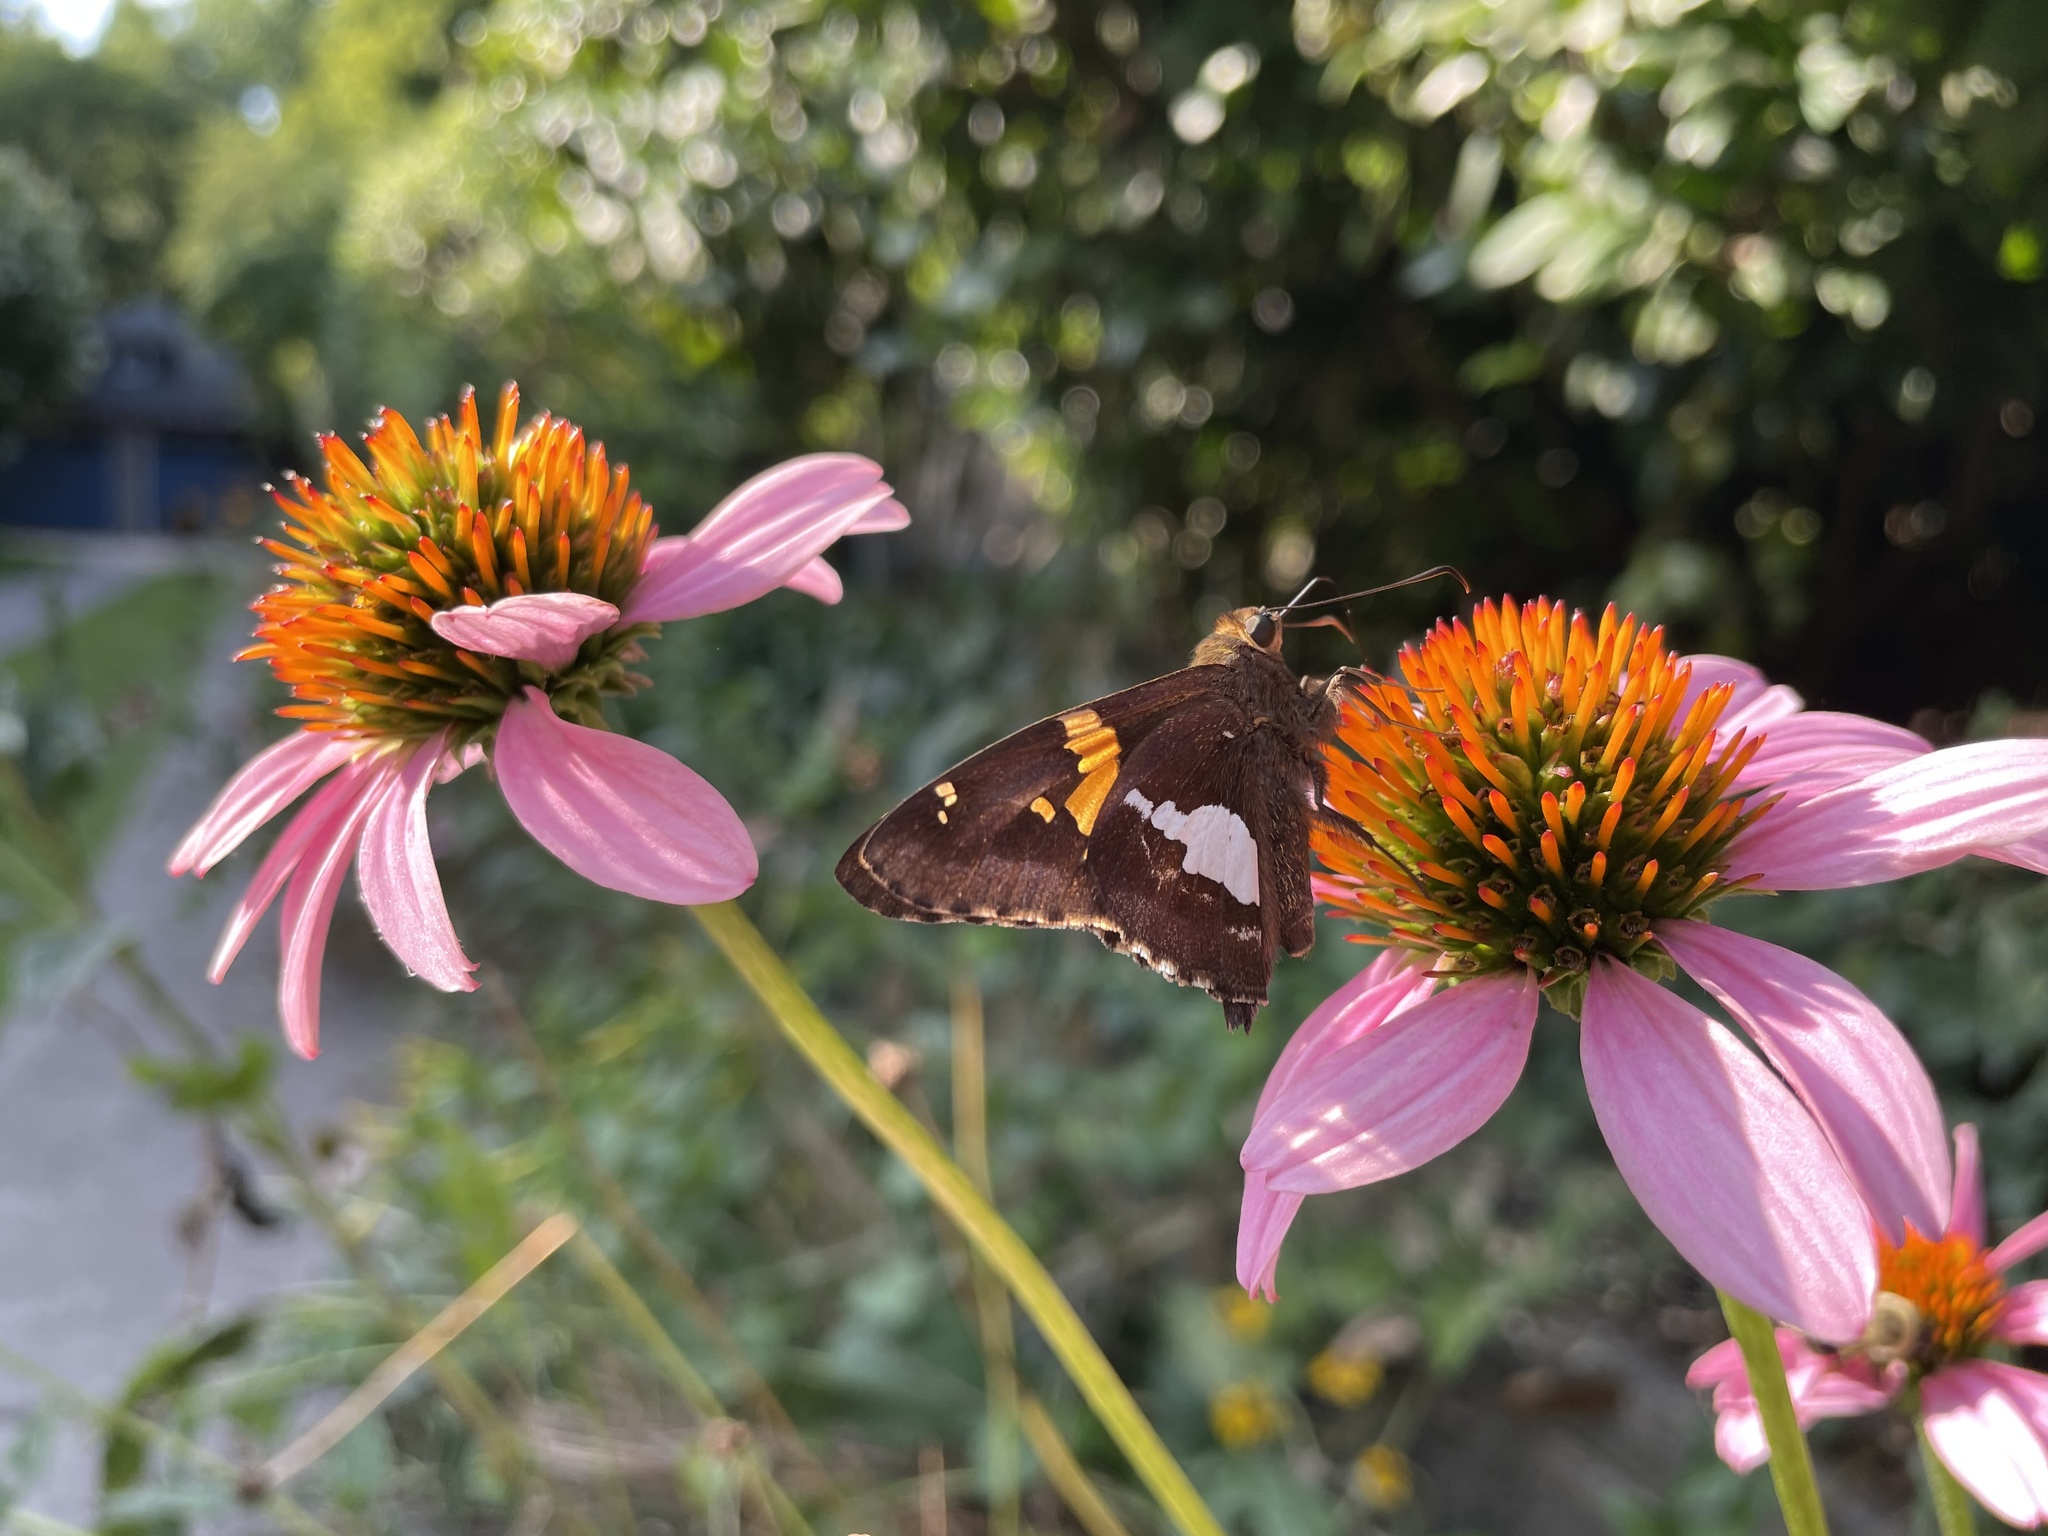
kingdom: Animalia
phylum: Arthropoda
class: Insecta
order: Lepidoptera
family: Hesperiidae
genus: Epargyreus
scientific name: Epargyreus clarus
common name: Silver-spotted skipper
